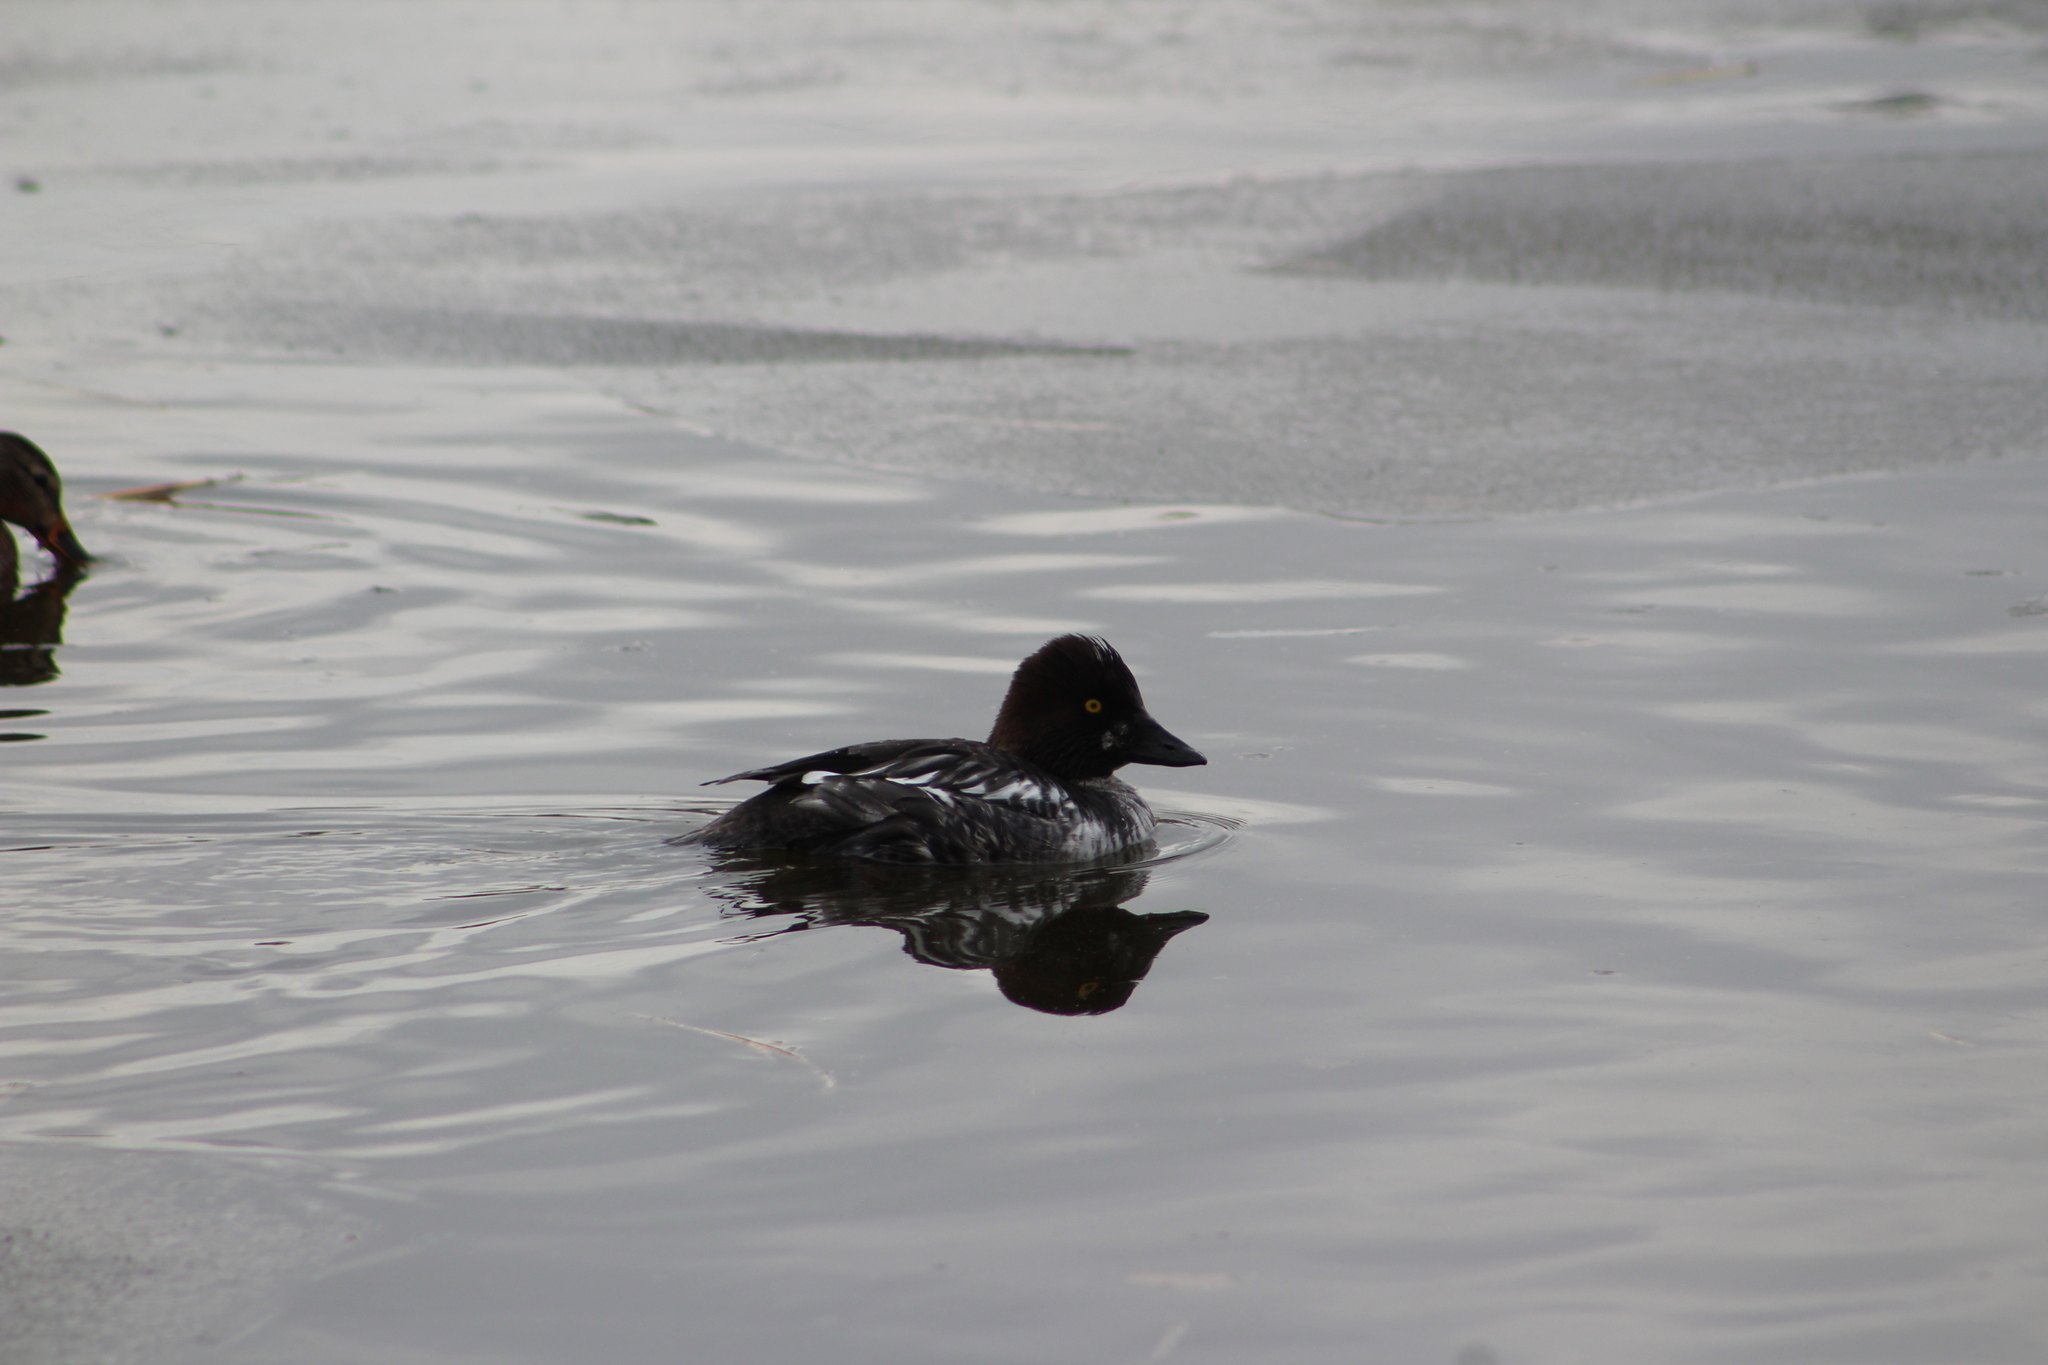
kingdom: Animalia
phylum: Chordata
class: Aves
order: Anseriformes
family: Anatidae
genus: Bucephala
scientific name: Bucephala clangula
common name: Common goldeneye
